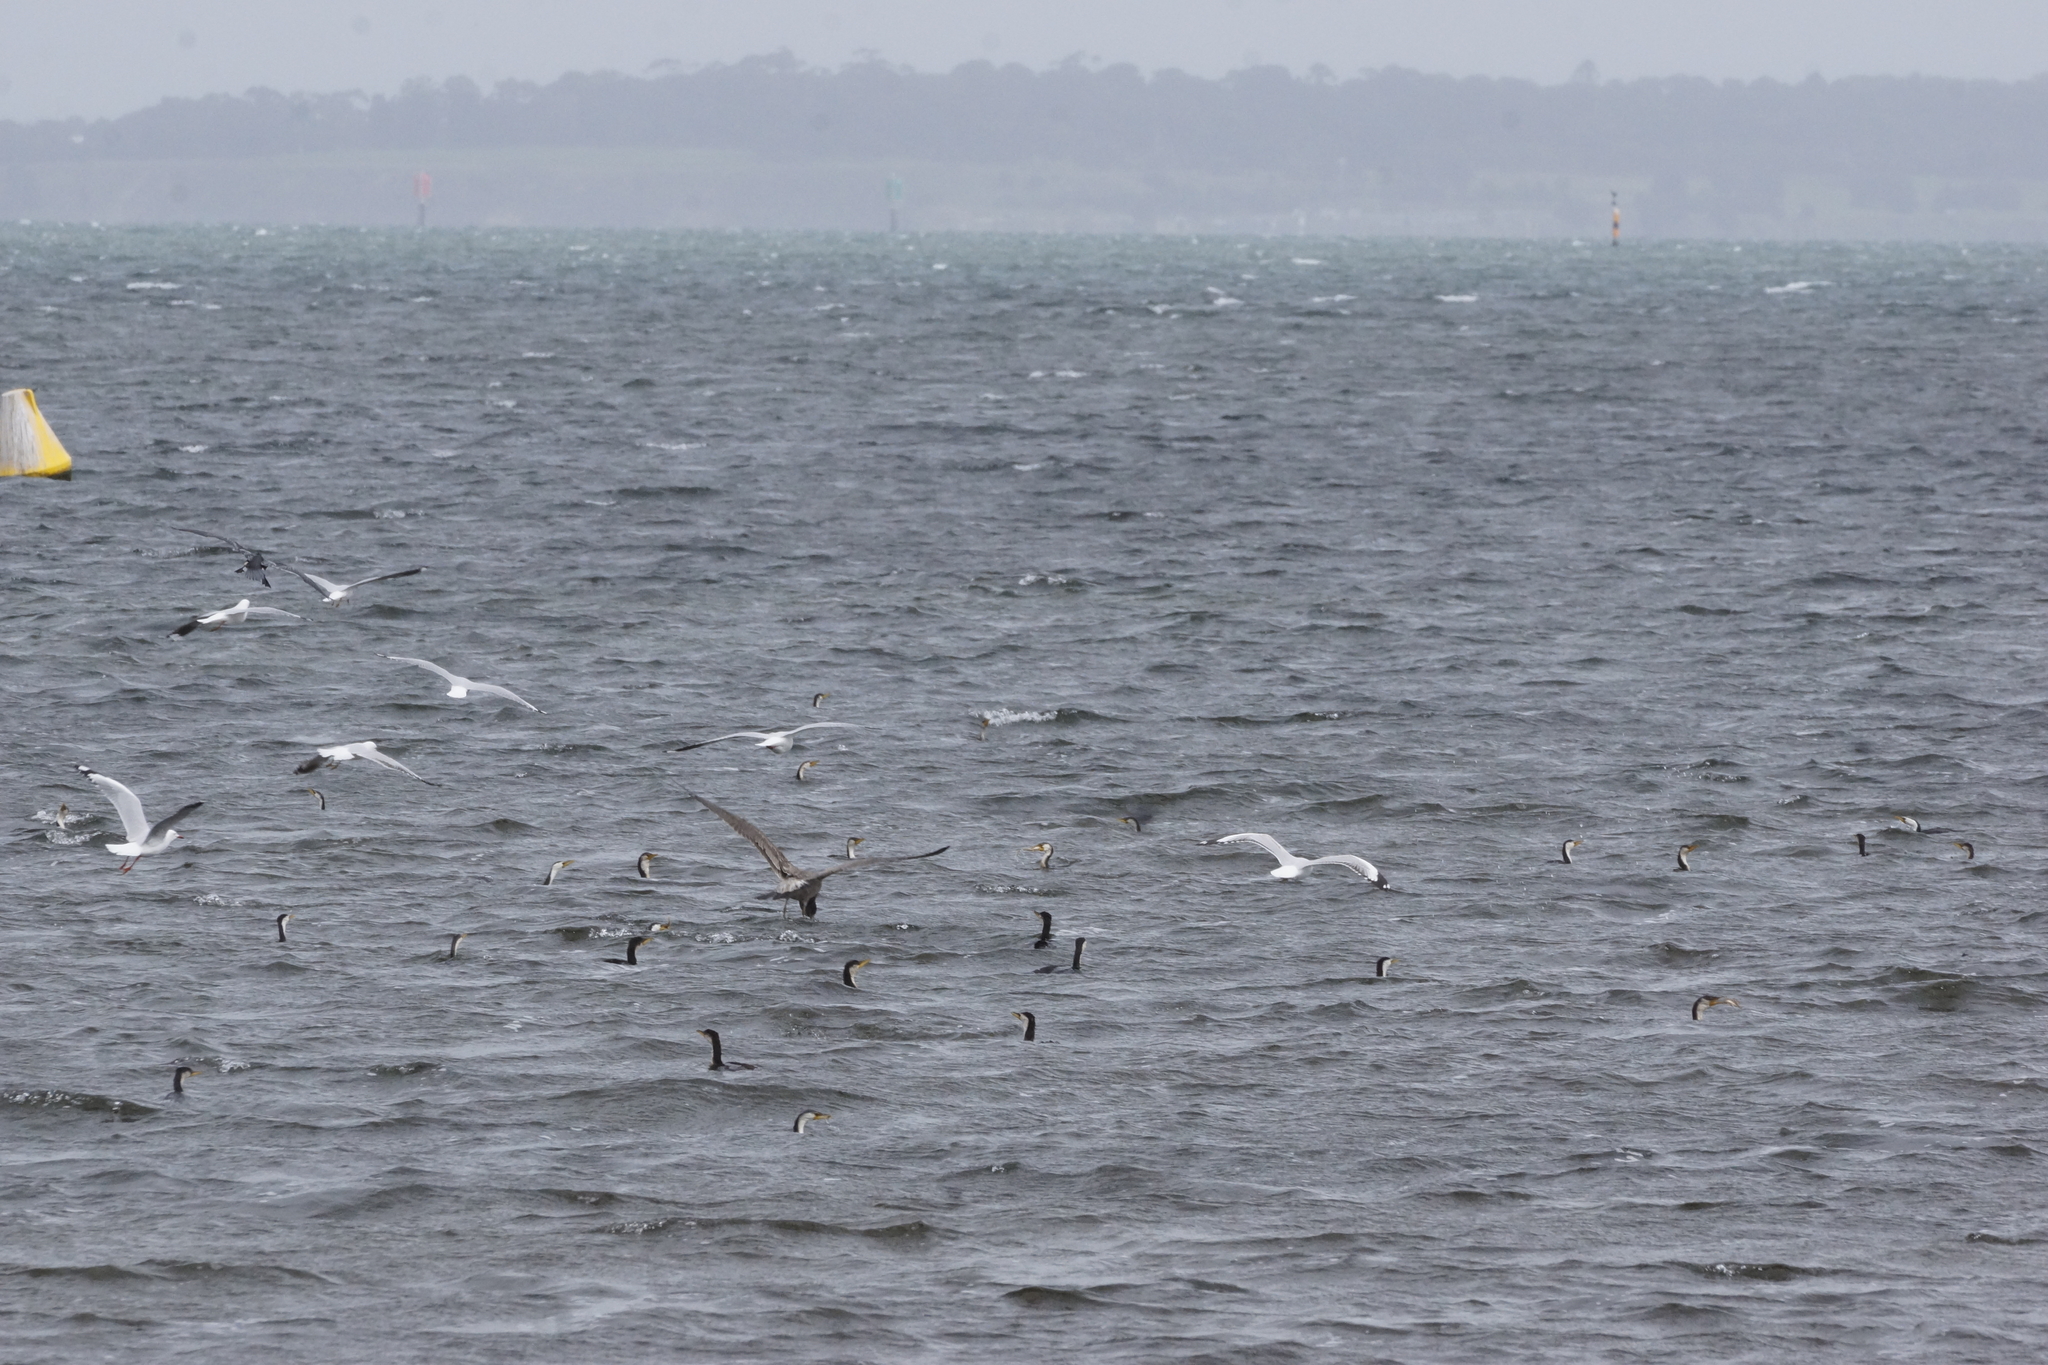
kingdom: Animalia
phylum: Chordata
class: Aves
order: Suliformes
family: Phalacrocoracidae
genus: Microcarbo
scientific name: Microcarbo melanoleucos
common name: Little pied cormorant
